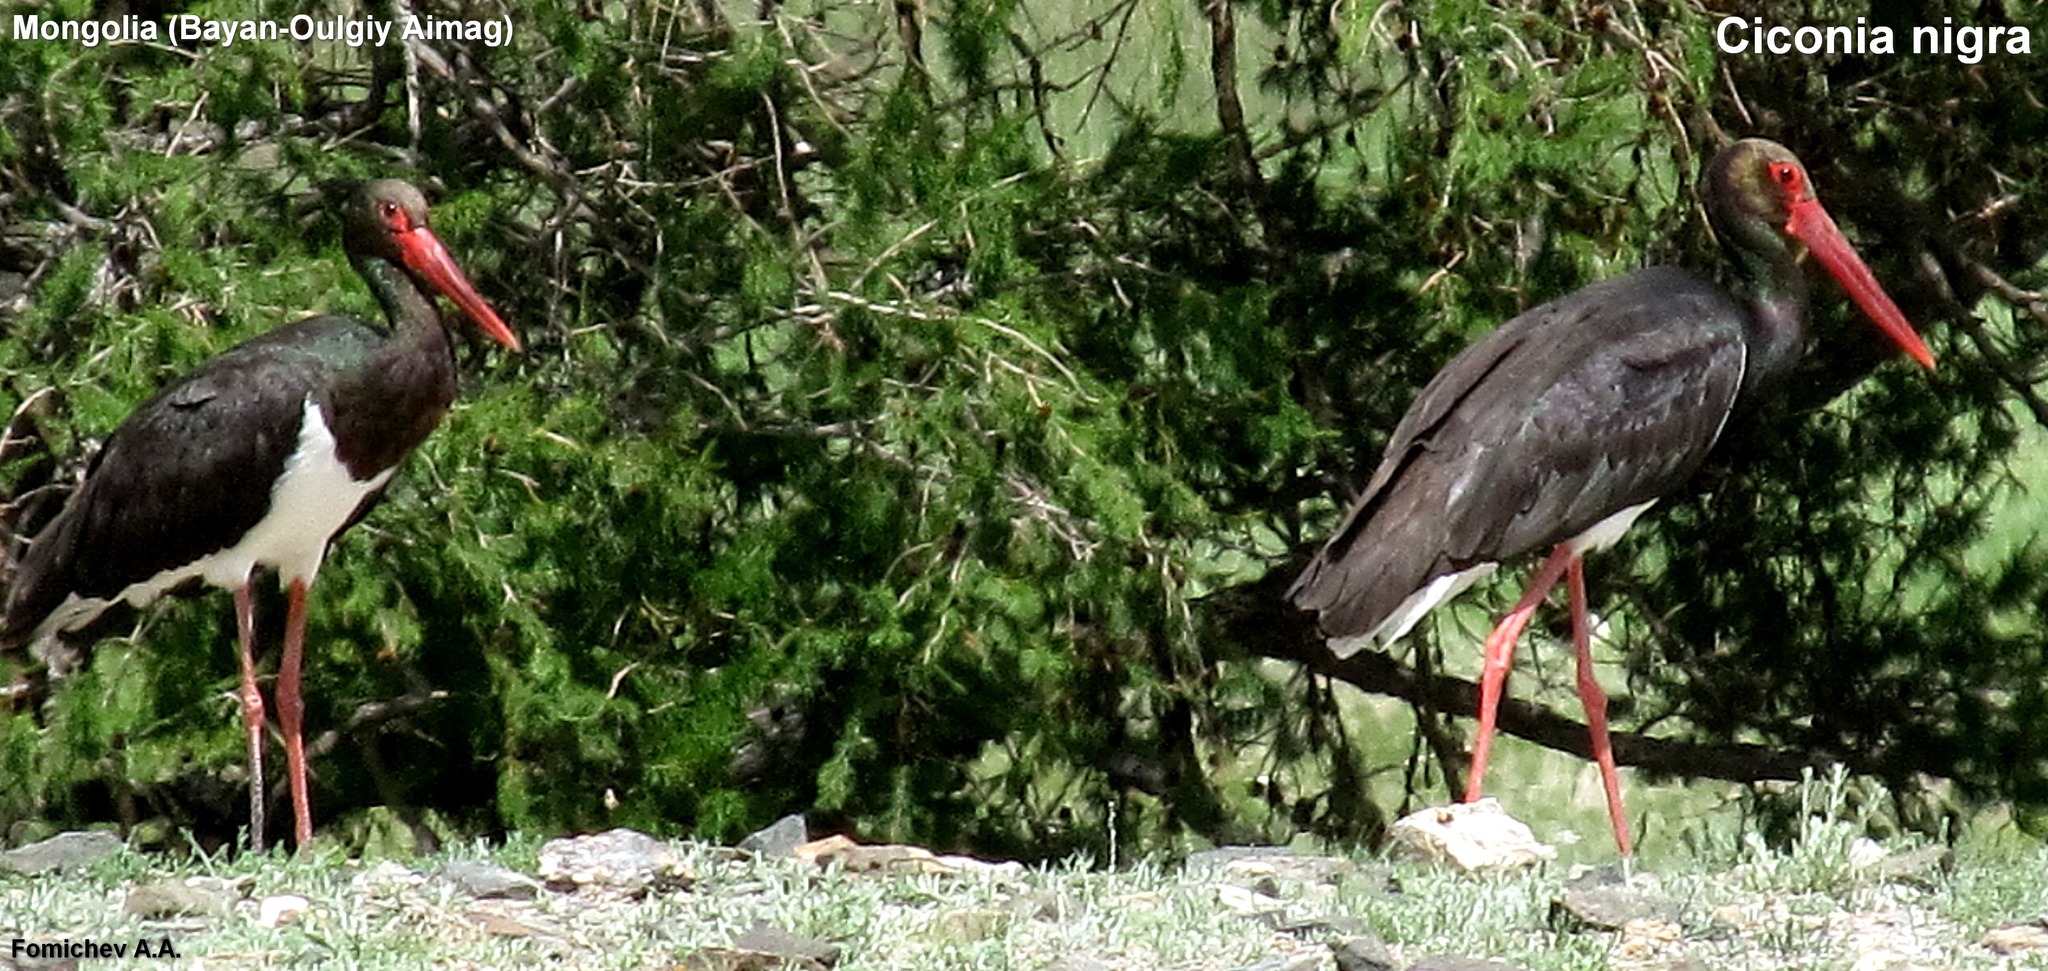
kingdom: Animalia
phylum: Chordata
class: Aves
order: Ciconiiformes
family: Ciconiidae
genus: Ciconia
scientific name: Ciconia nigra
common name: Black stork
